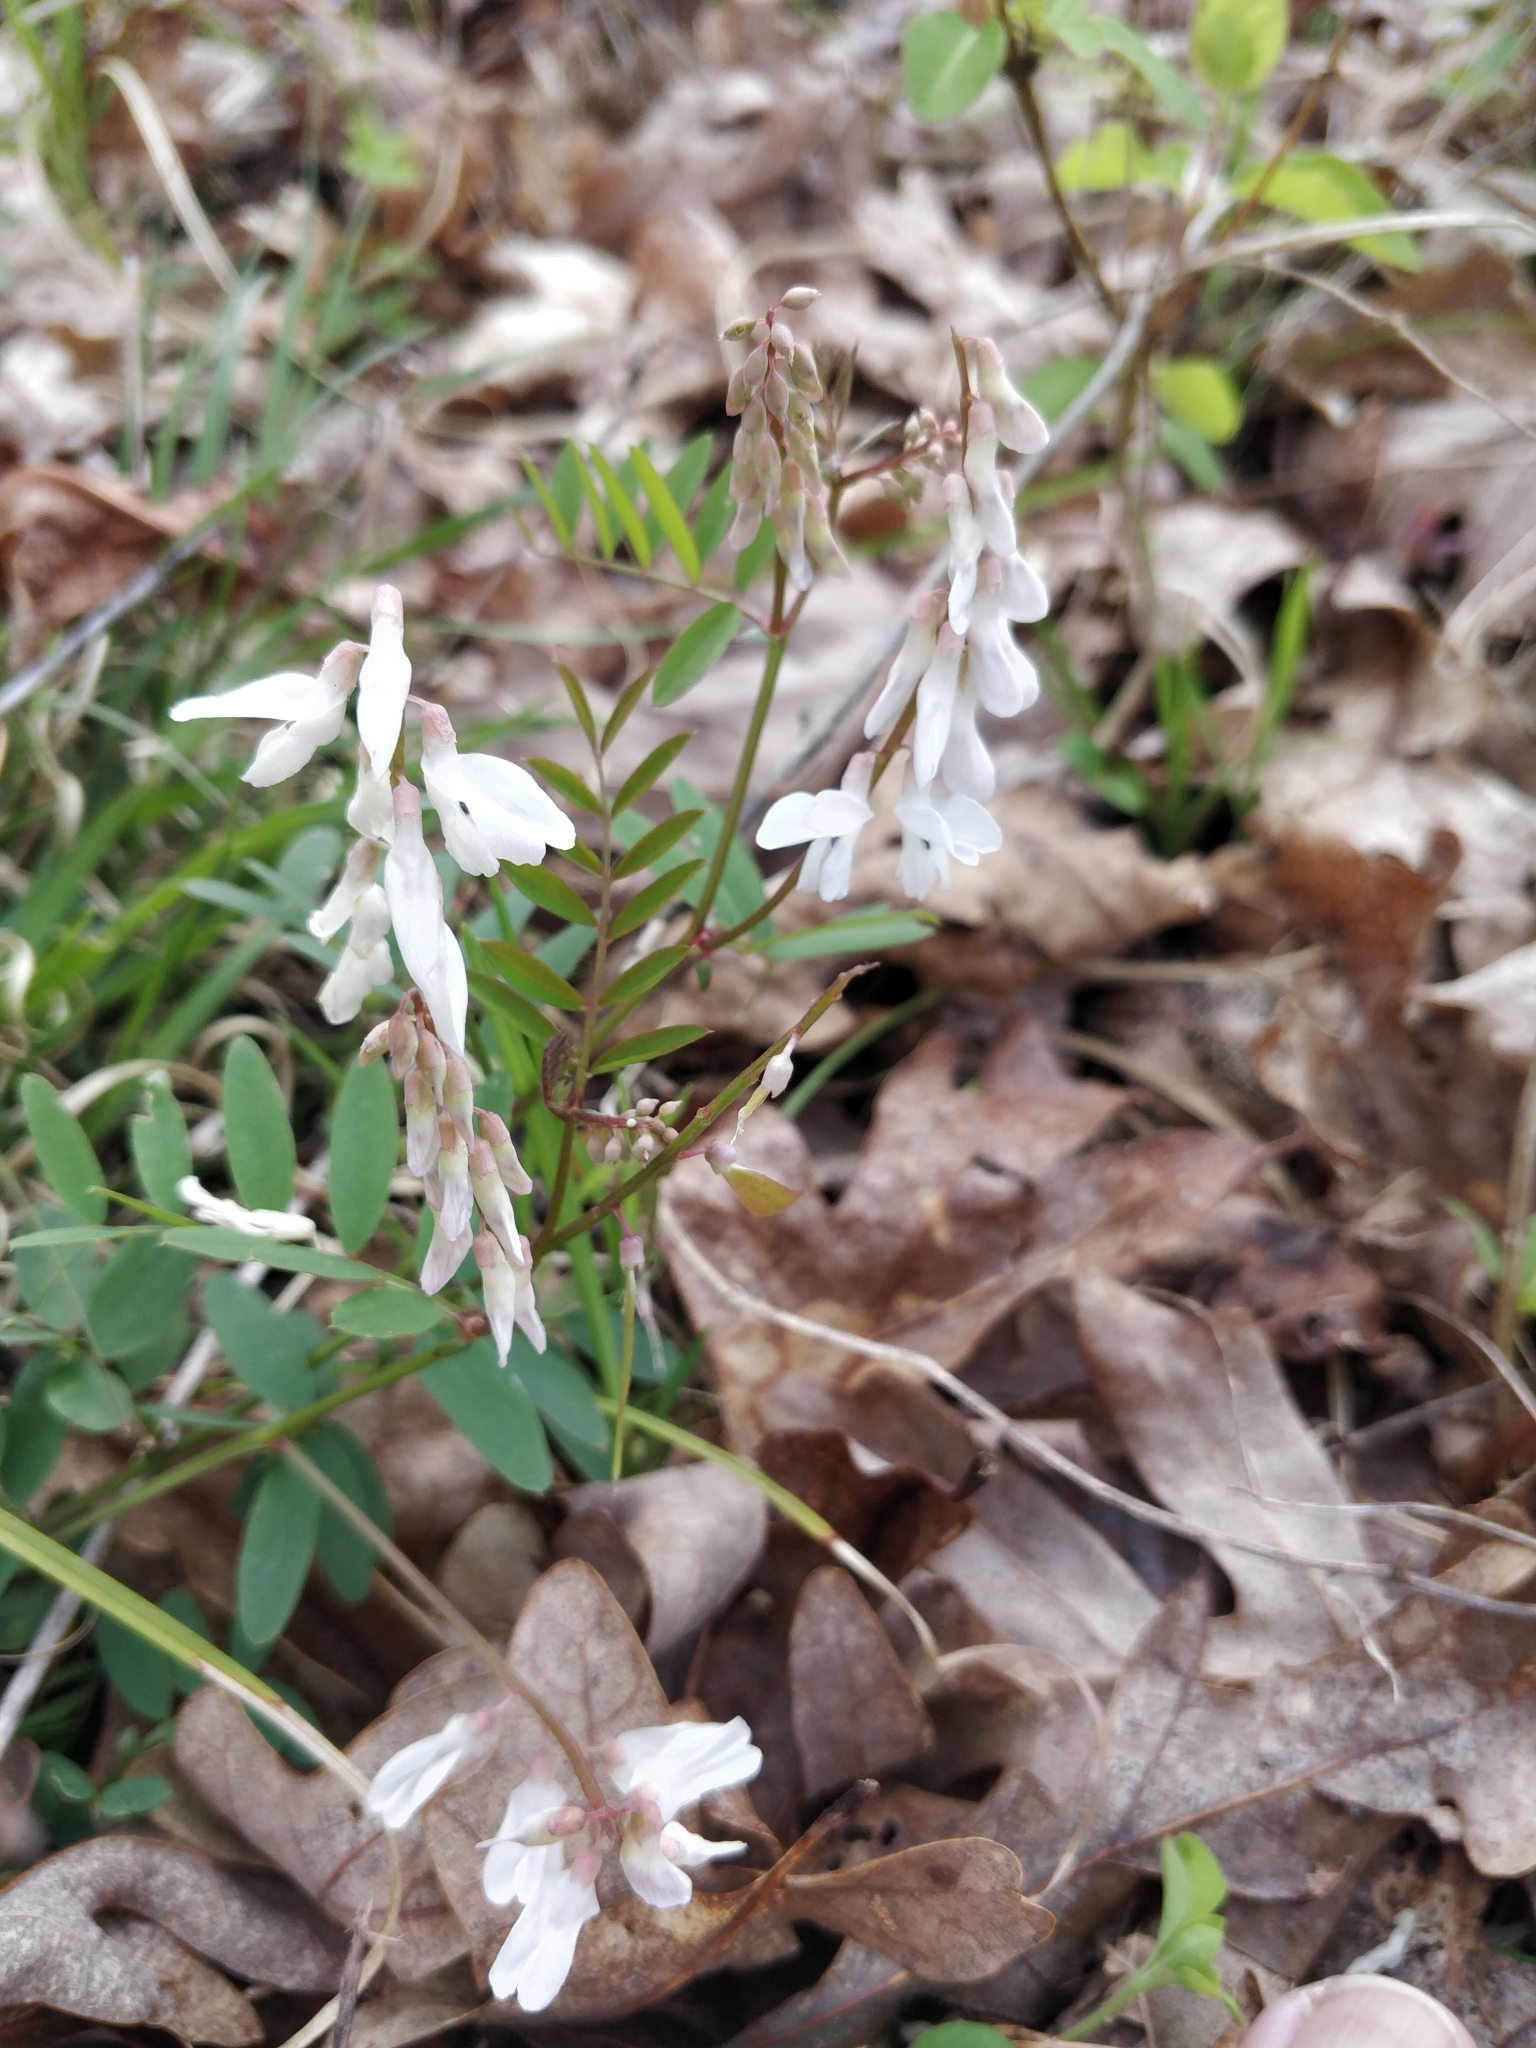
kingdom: Plantae
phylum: Tracheophyta
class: Magnoliopsida
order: Fabales
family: Fabaceae
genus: Vicia
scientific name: Vicia caroliniana
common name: Carolina vetch
